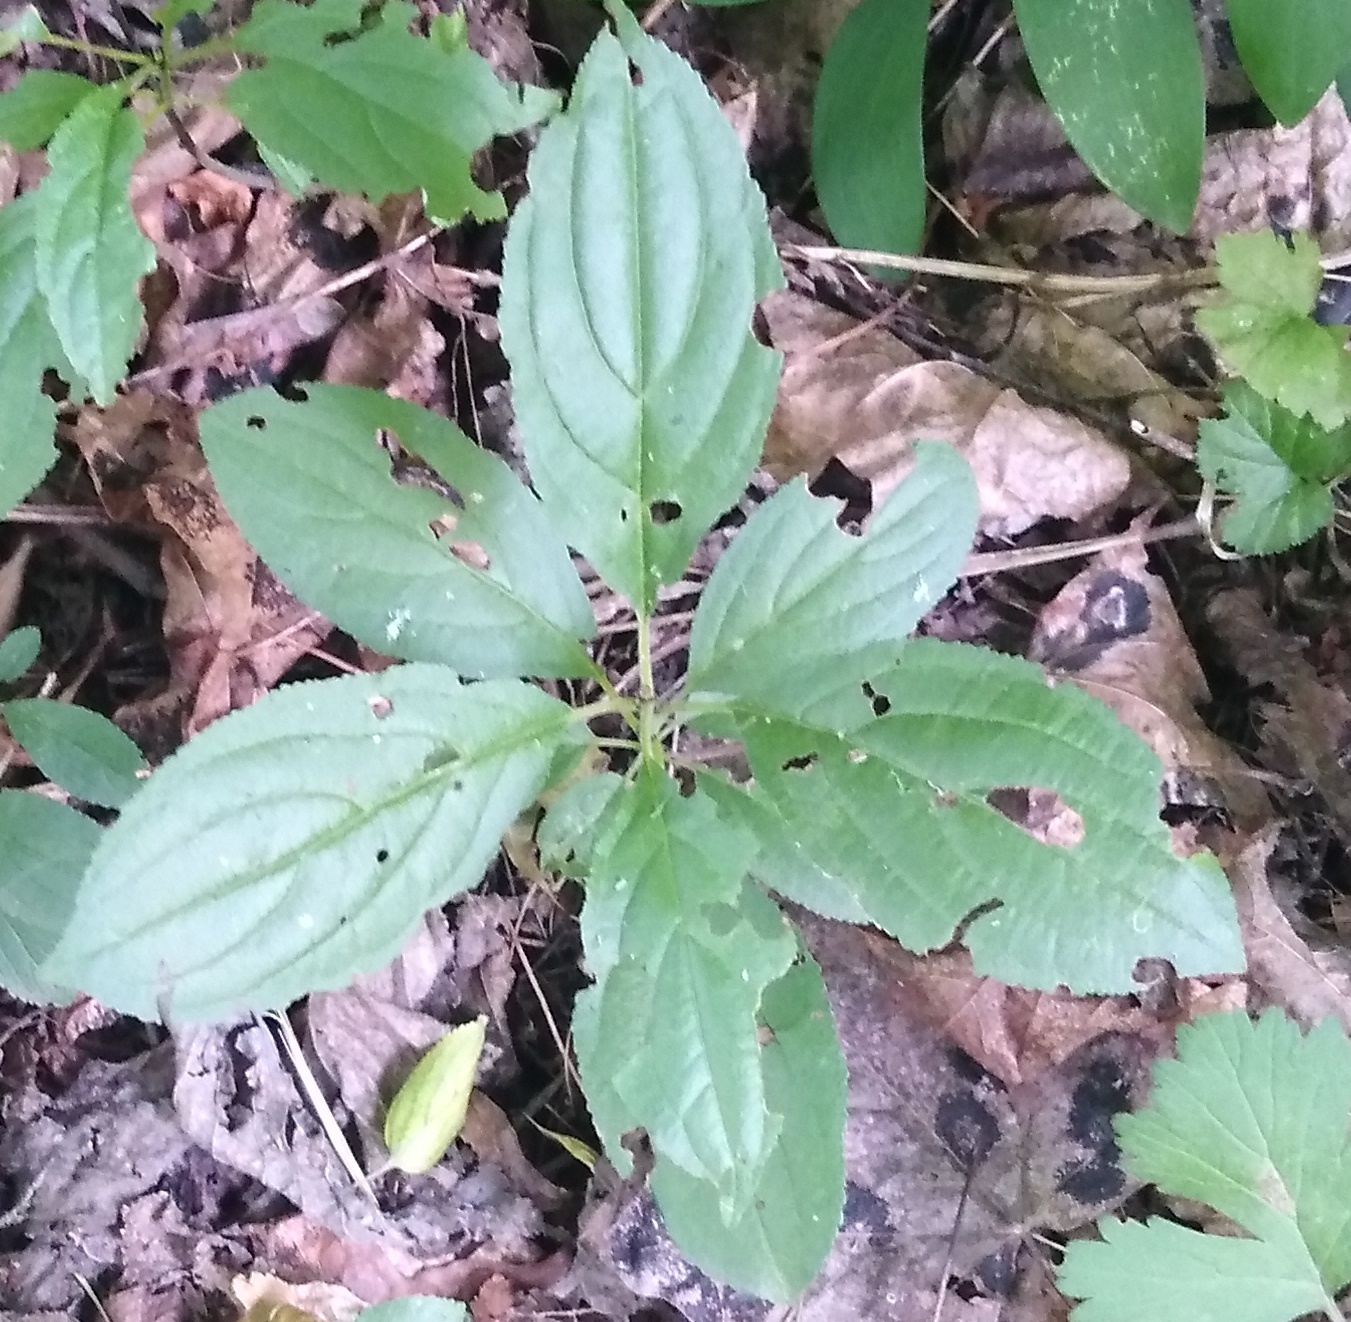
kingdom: Plantae
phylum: Tracheophyta
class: Magnoliopsida
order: Rosales
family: Rhamnaceae
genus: Rhamnus
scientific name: Rhamnus cathartica
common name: Common buckthorn
